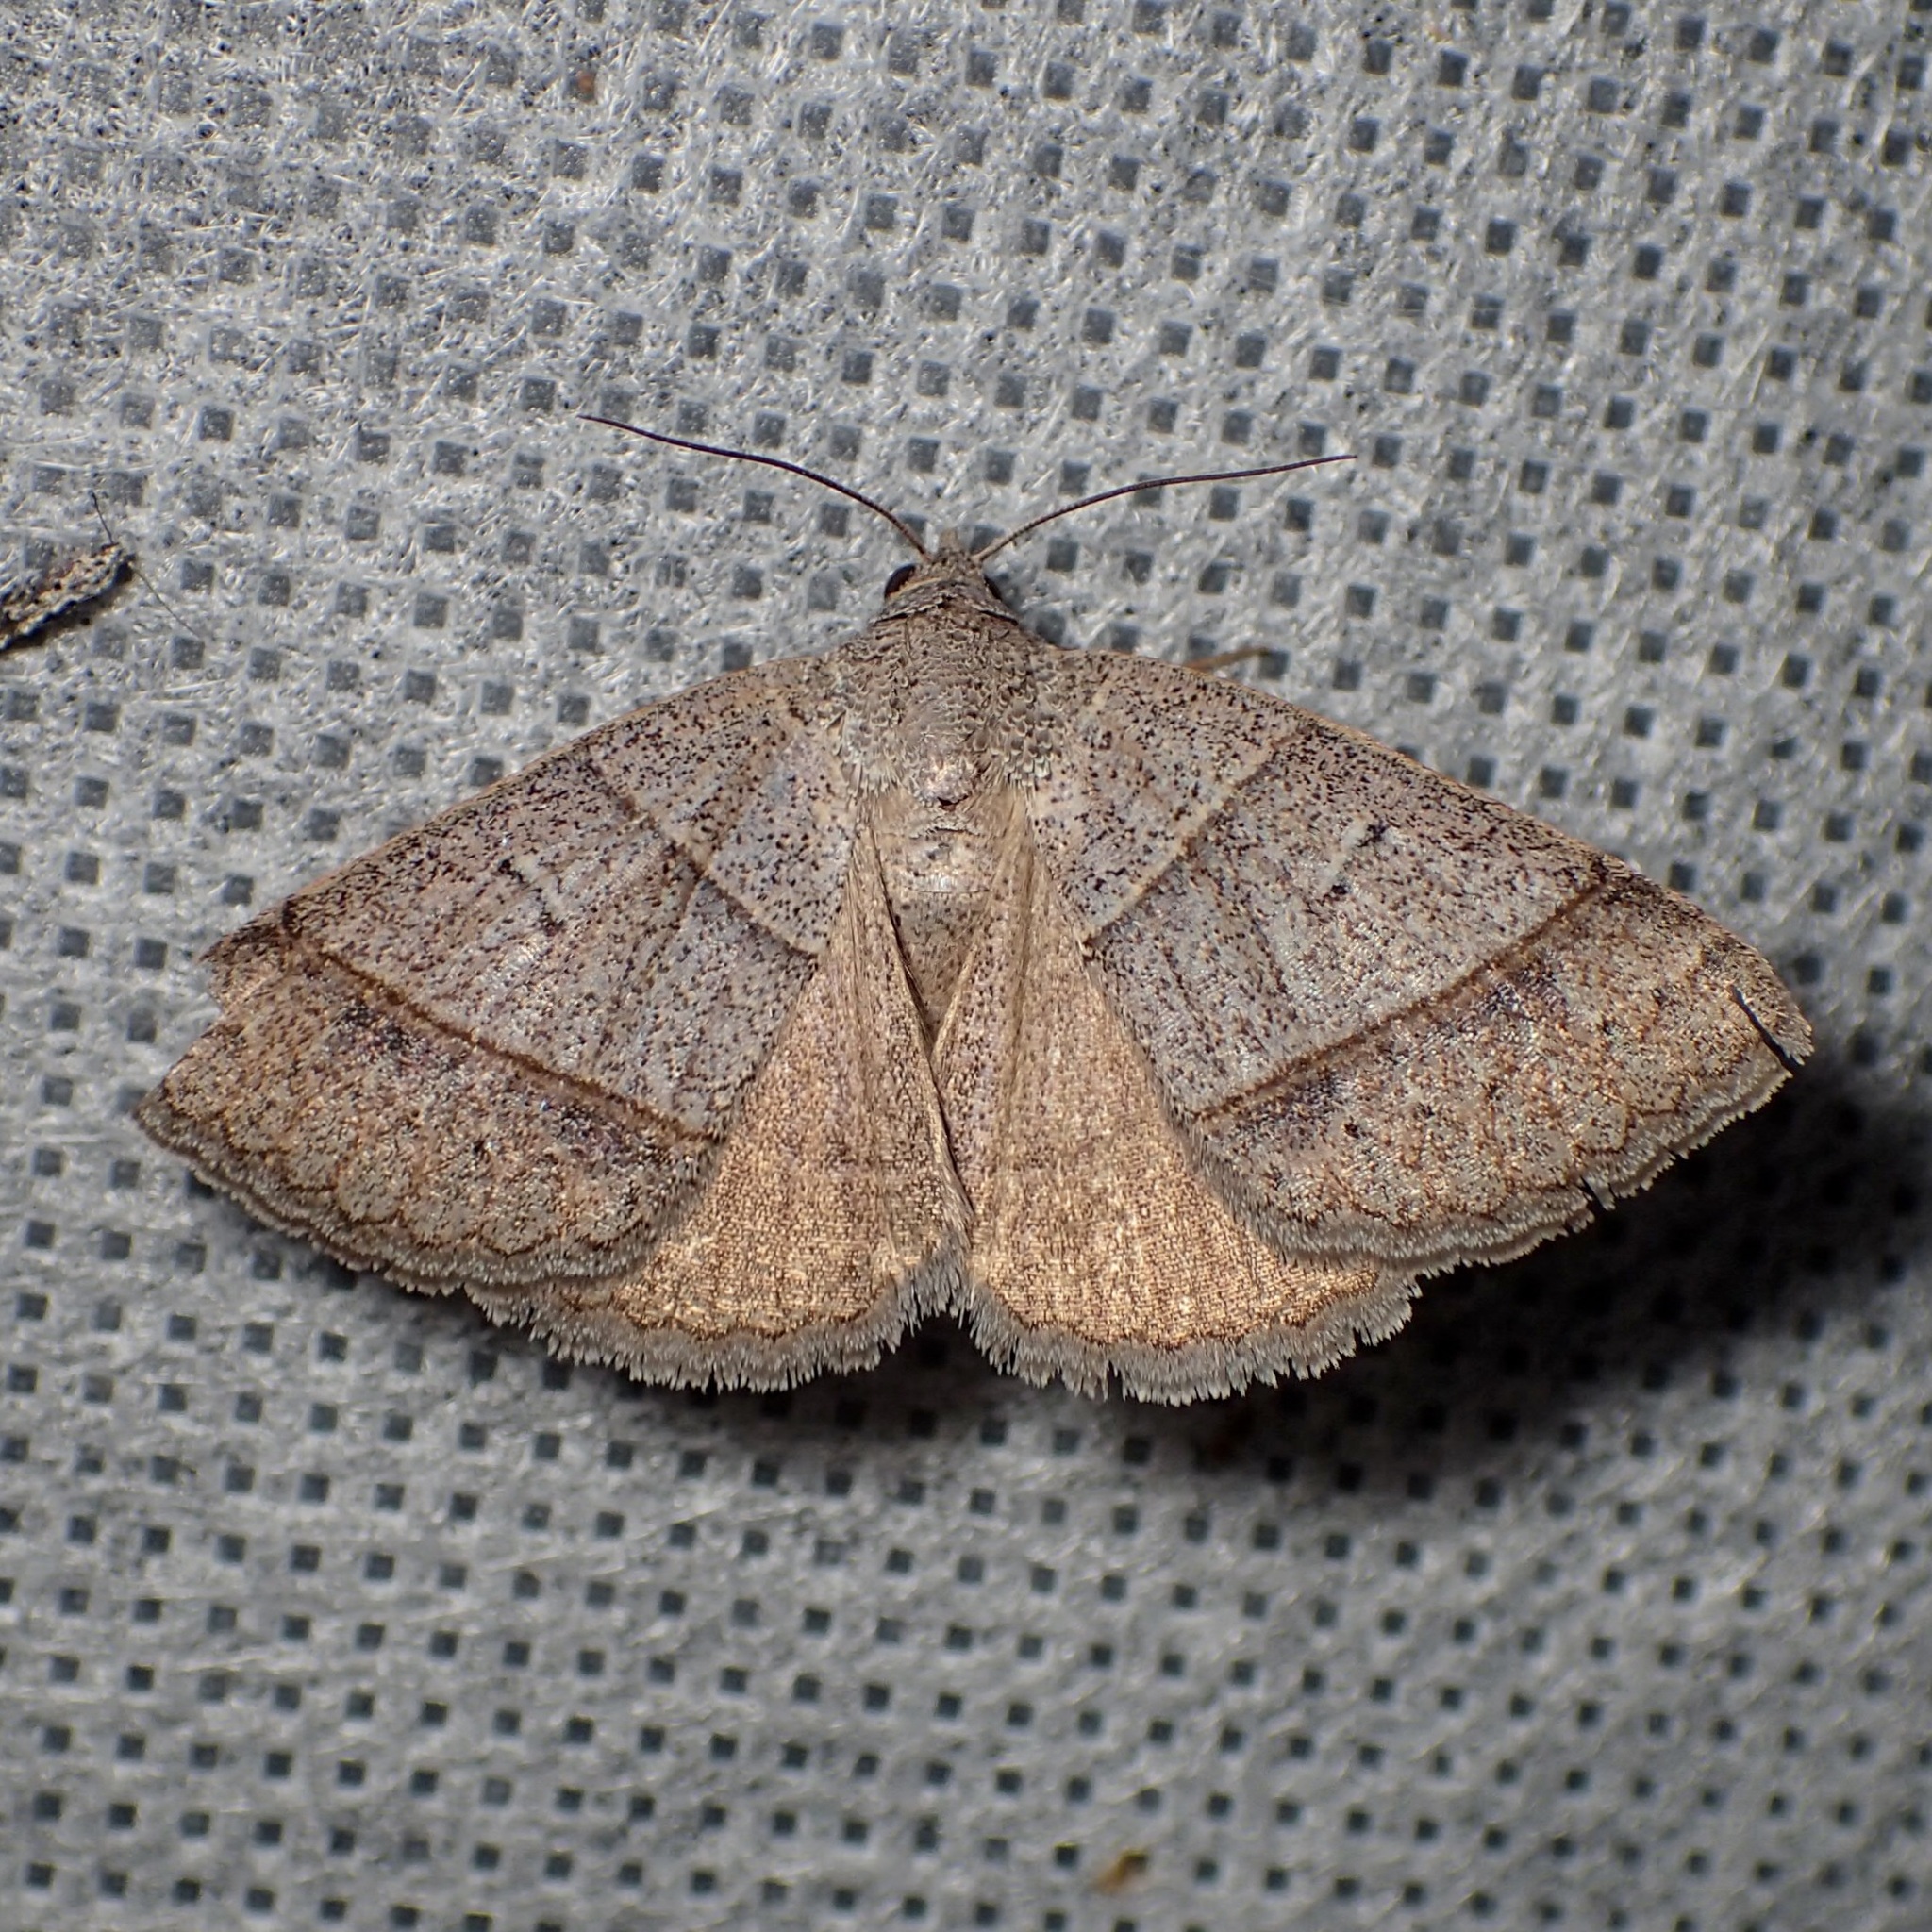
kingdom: Animalia
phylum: Arthropoda
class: Insecta
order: Lepidoptera
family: Erebidae
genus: Ptichodis
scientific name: Ptichodis ovalis
